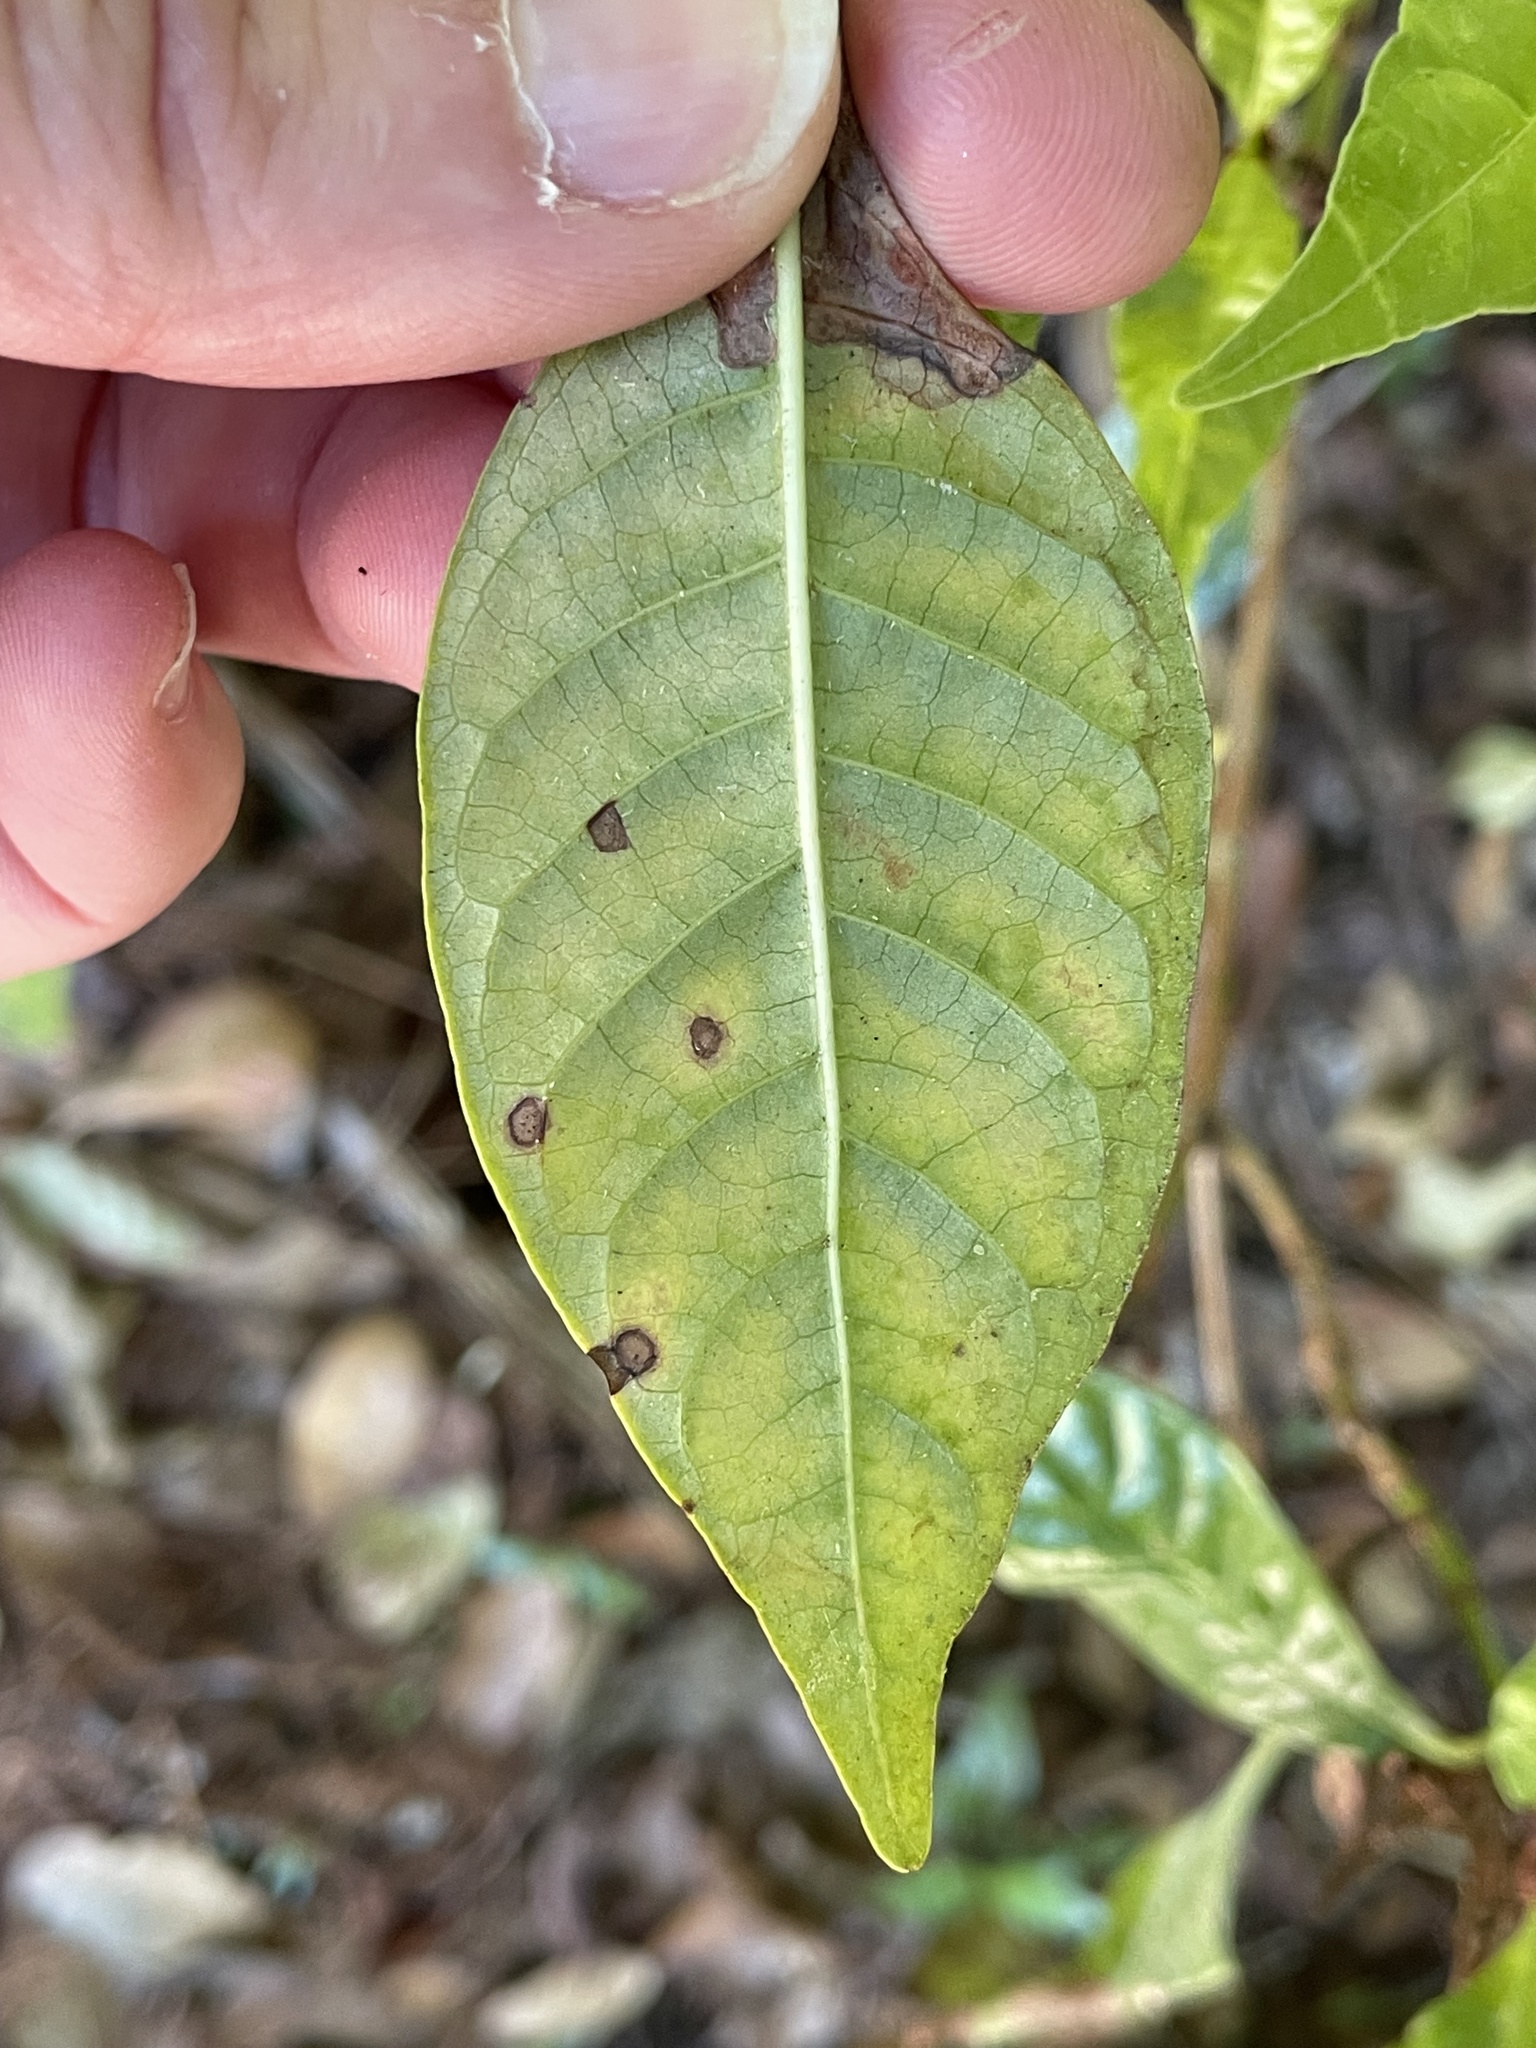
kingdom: Fungi
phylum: Ascomycota
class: Dothideomycetes
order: Mycosphaerellales
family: Mycosphaerellaceae
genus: Cercosporina
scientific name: Cercosporina coffeicola
